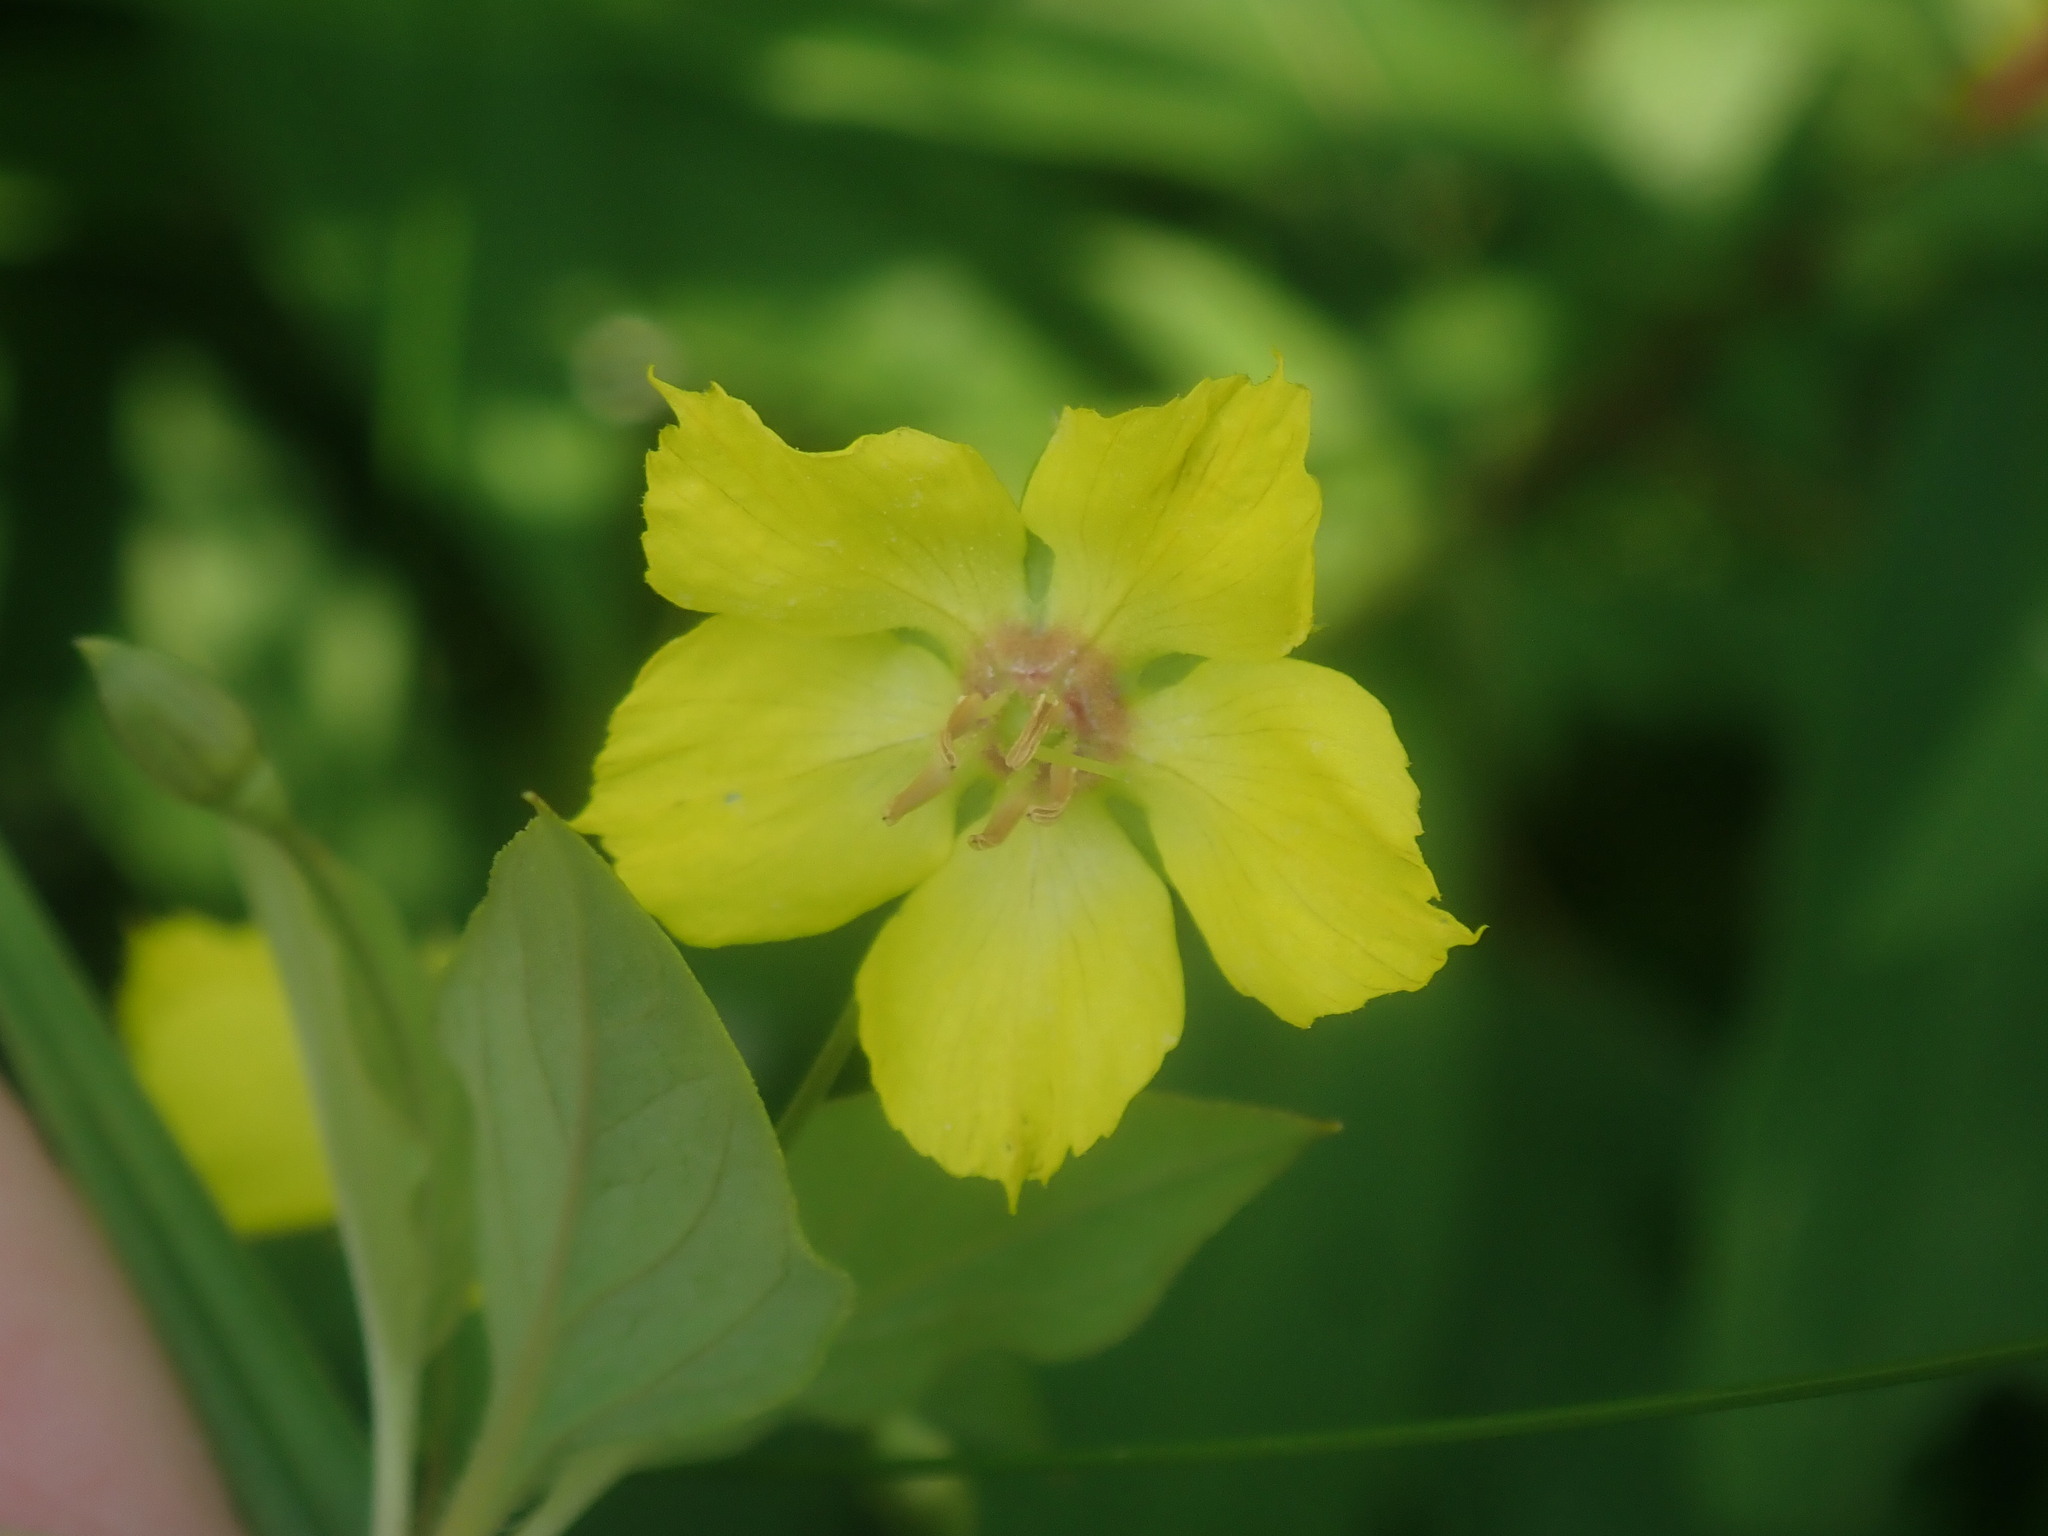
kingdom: Plantae
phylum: Tracheophyta
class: Magnoliopsida
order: Ericales
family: Primulaceae
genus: Lysimachia
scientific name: Lysimachia ciliata
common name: Fringed loosestrife
